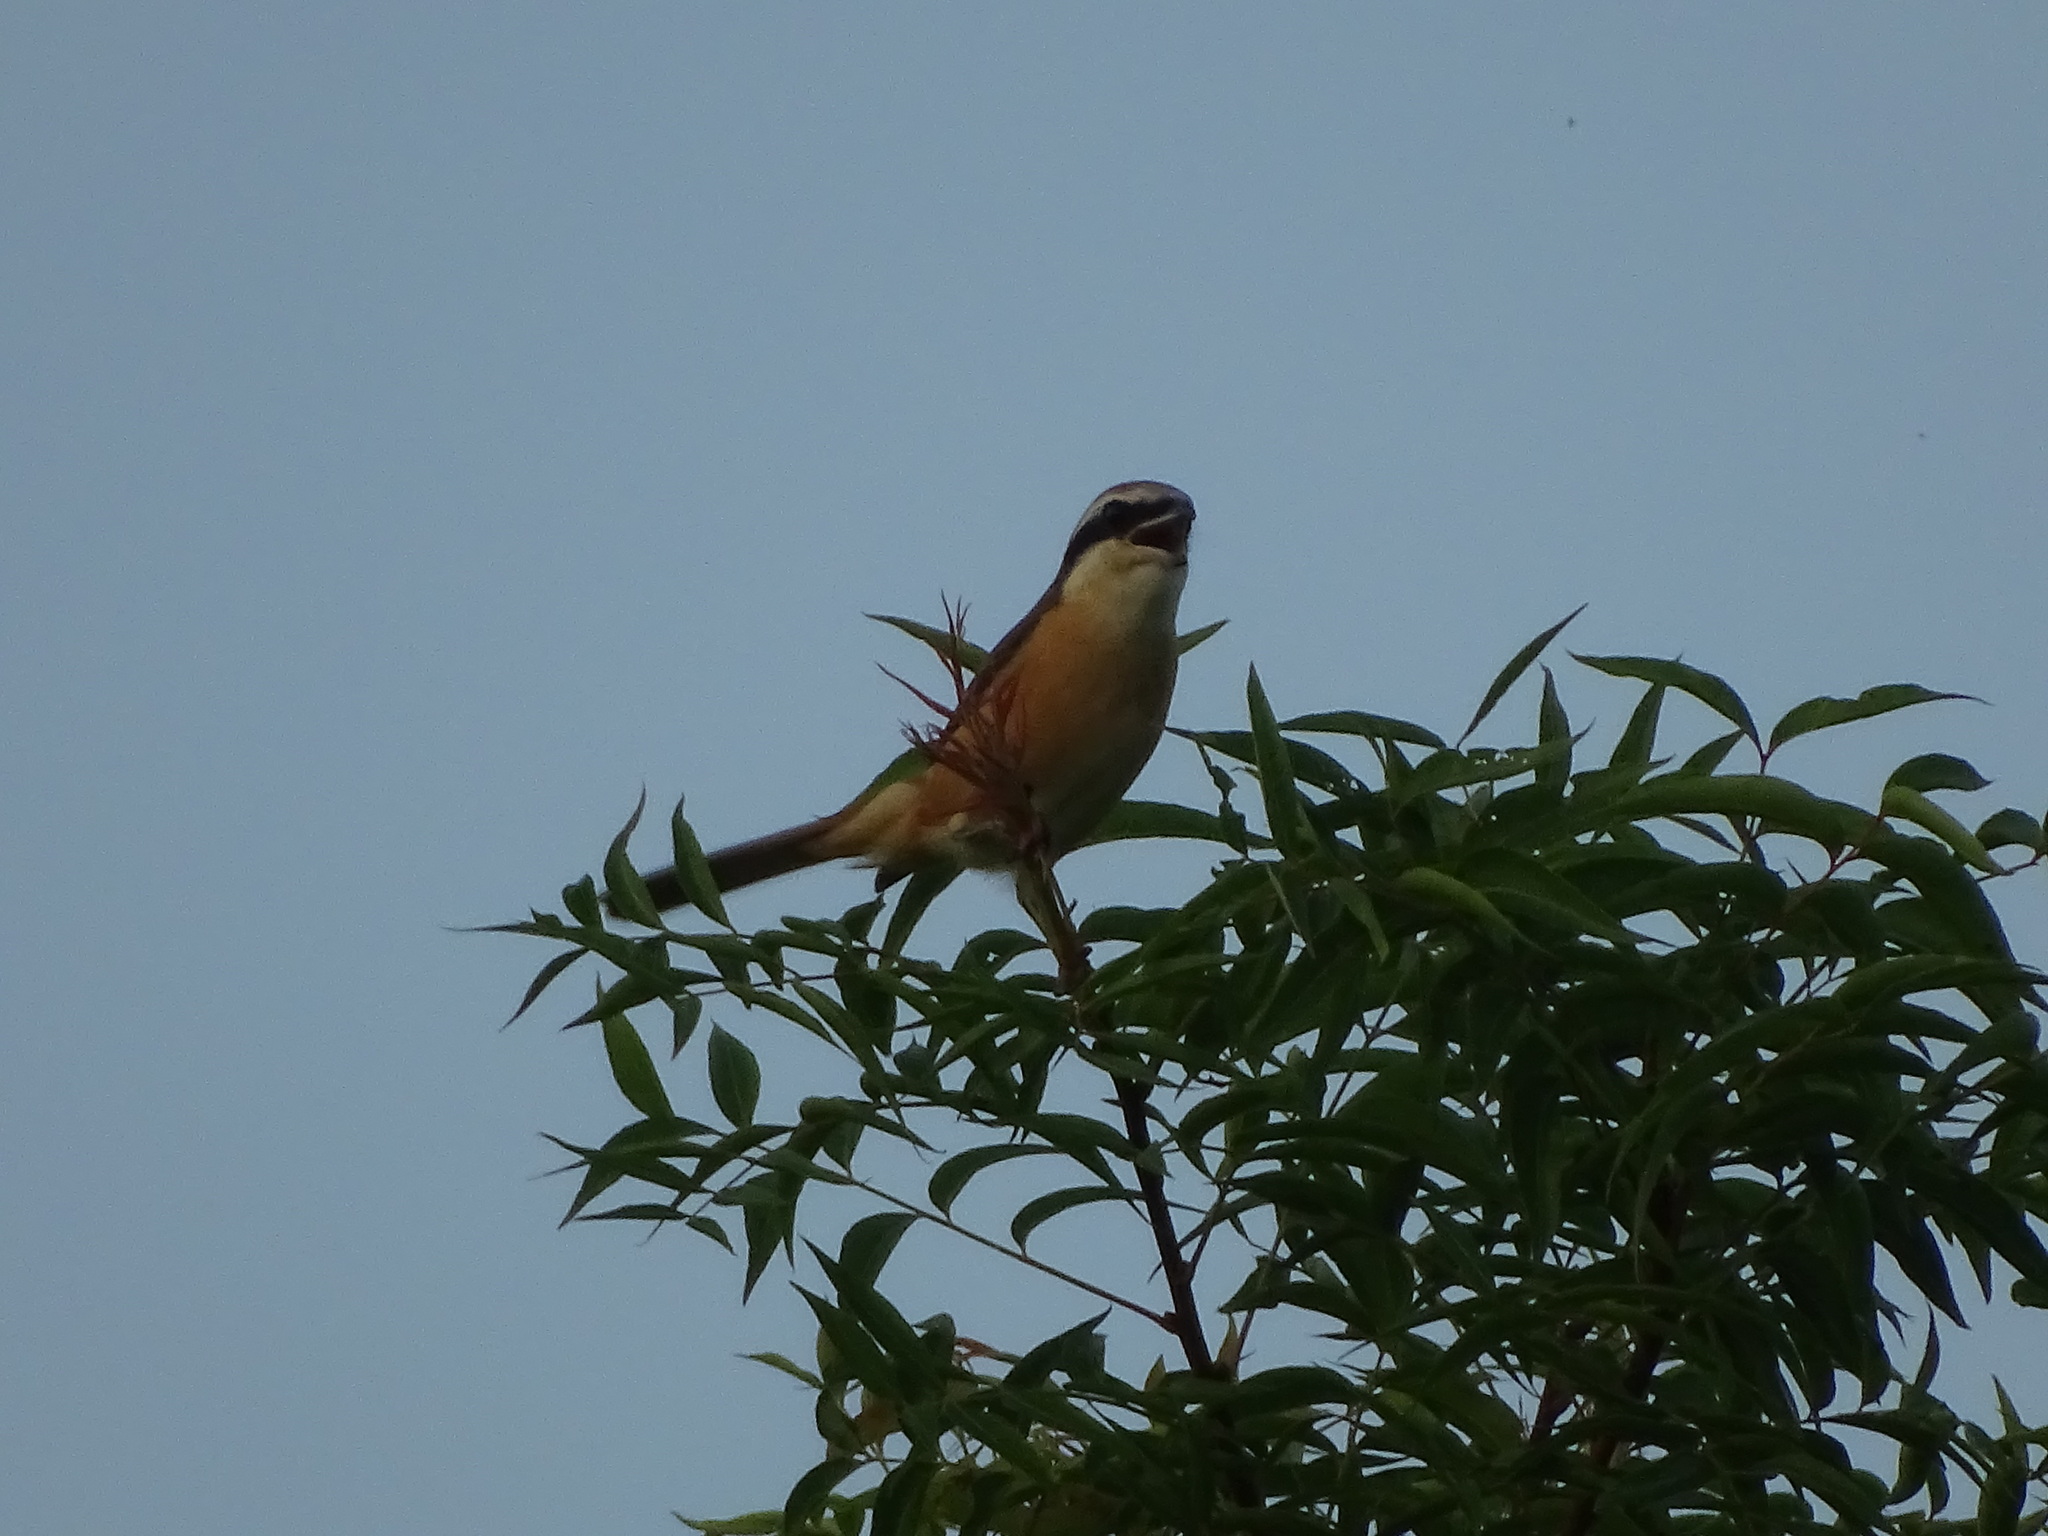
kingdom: Animalia
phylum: Chordata
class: Aves
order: Passeriformes
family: Laniidae
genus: Lanius
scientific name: Lanius cristatus
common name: Brown shrike
